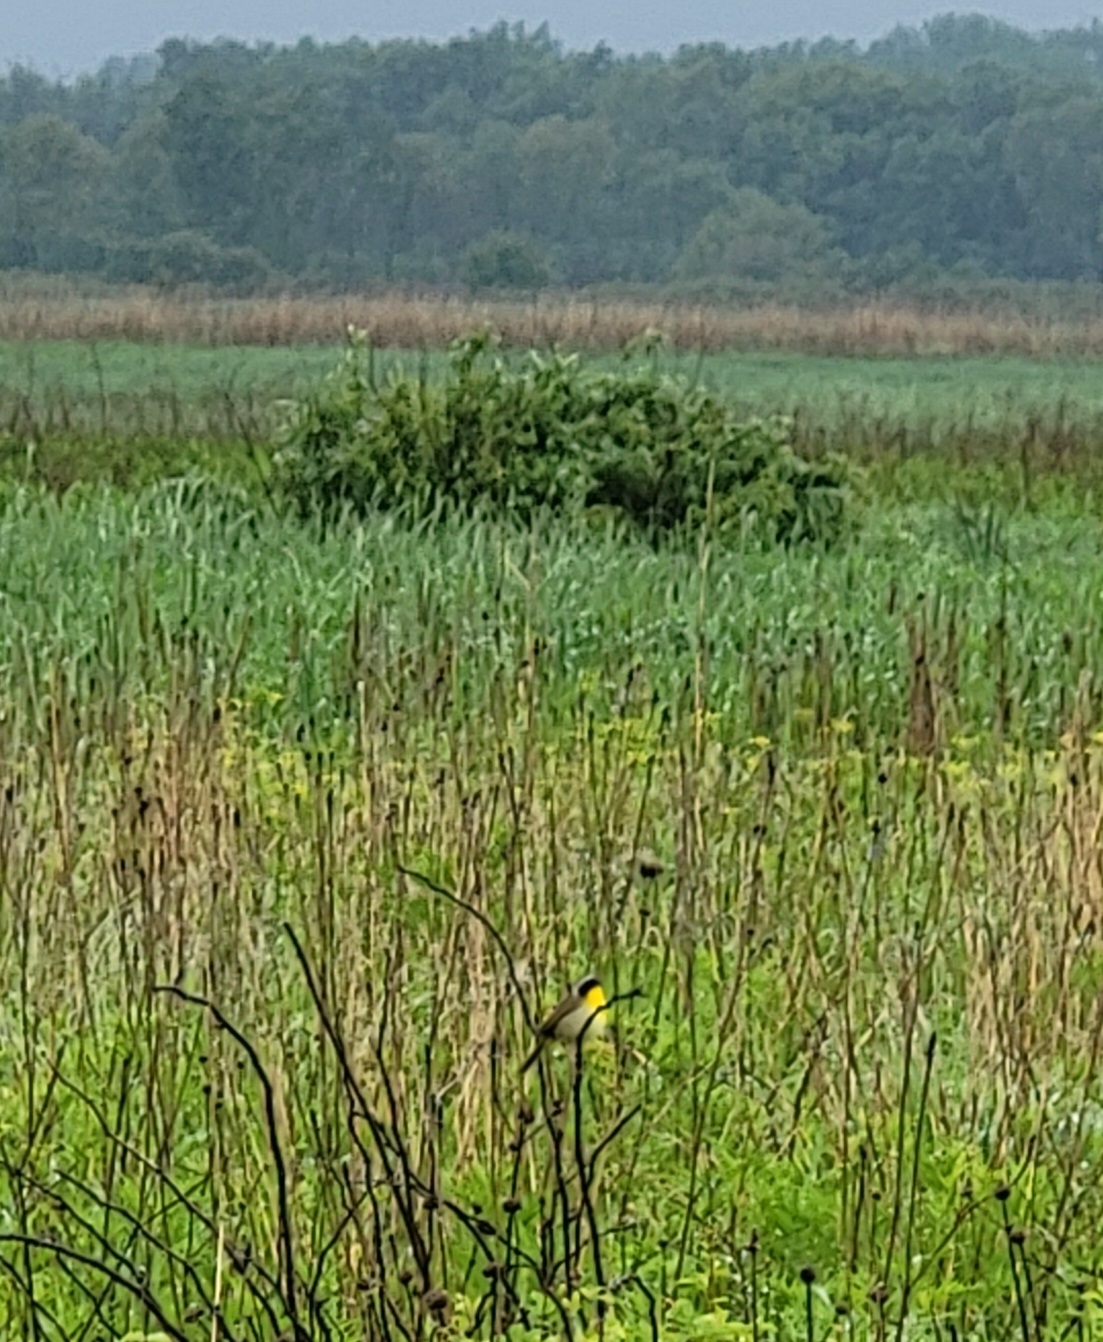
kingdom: Animalia
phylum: Chordata
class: Aves
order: Passeriformes
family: Parulidae
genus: Geothlypis
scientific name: Geothlypis trichas
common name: Common yellowthroat
